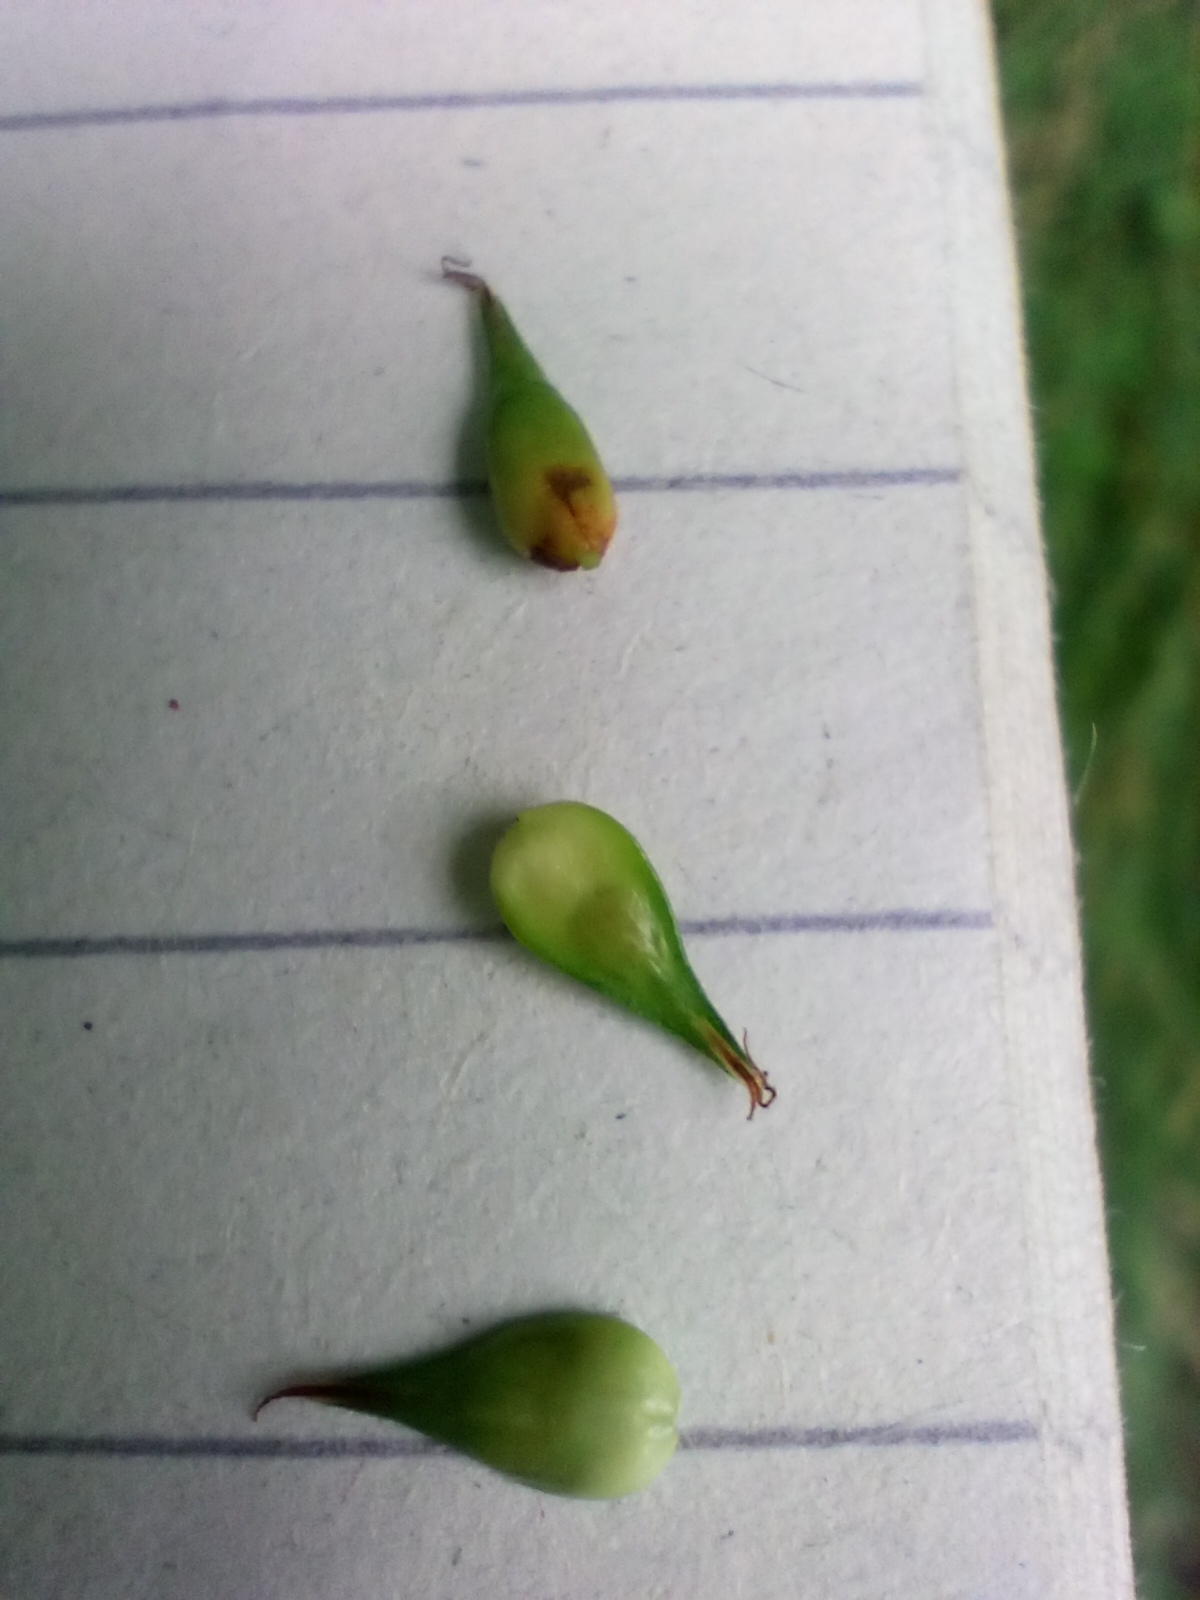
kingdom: Plantae
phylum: Tracheophyta
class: Liliopsida
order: Poales
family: Cyperaceae
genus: Carex
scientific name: Carex spicata
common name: Spiked sedge
